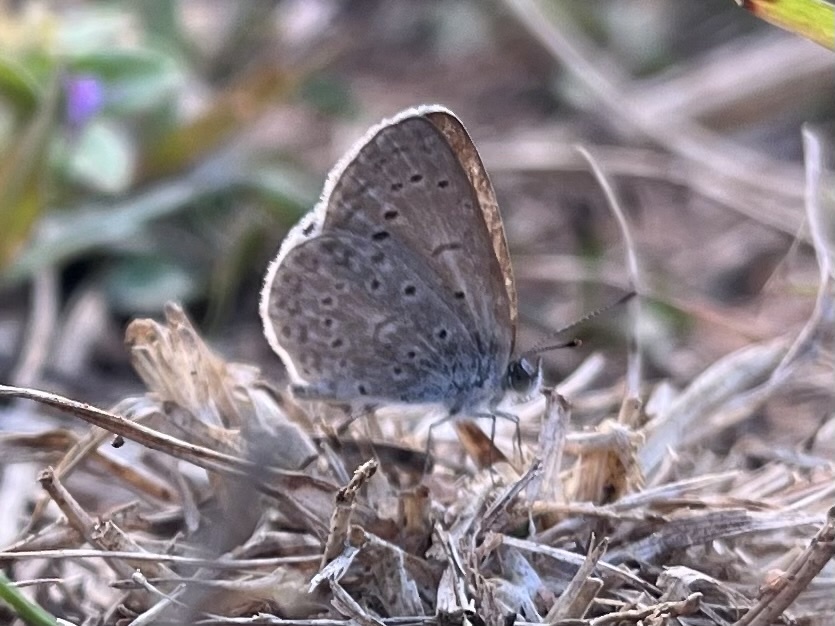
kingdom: Animalia
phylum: Arthropoda
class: Insecta
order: Lepidoptera
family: Lycaenidae
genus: Zizeeria
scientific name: Zizeeria knysna
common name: African grass blue
